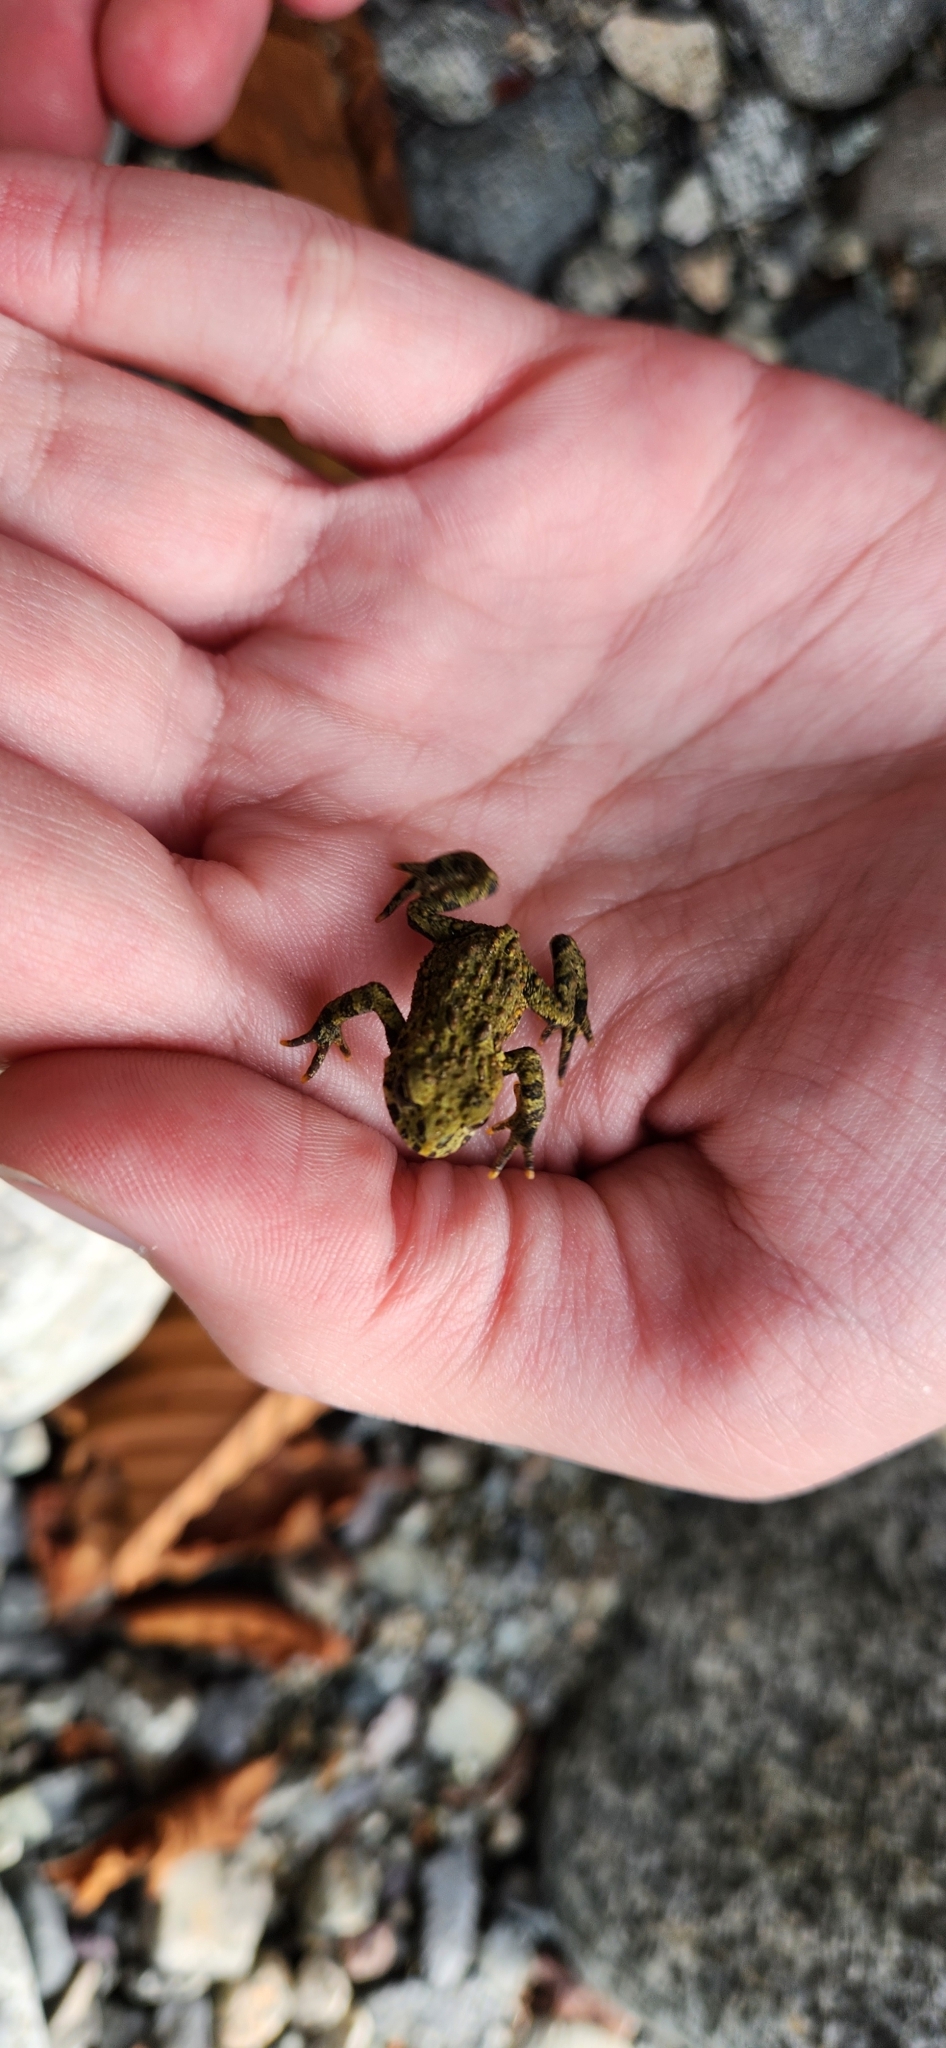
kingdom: Animalia
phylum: Chordata
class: Amphibia
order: Anura
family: Bufonidae
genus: Anaxyrus
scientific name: Anaxyrus boreas
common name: Western toad
